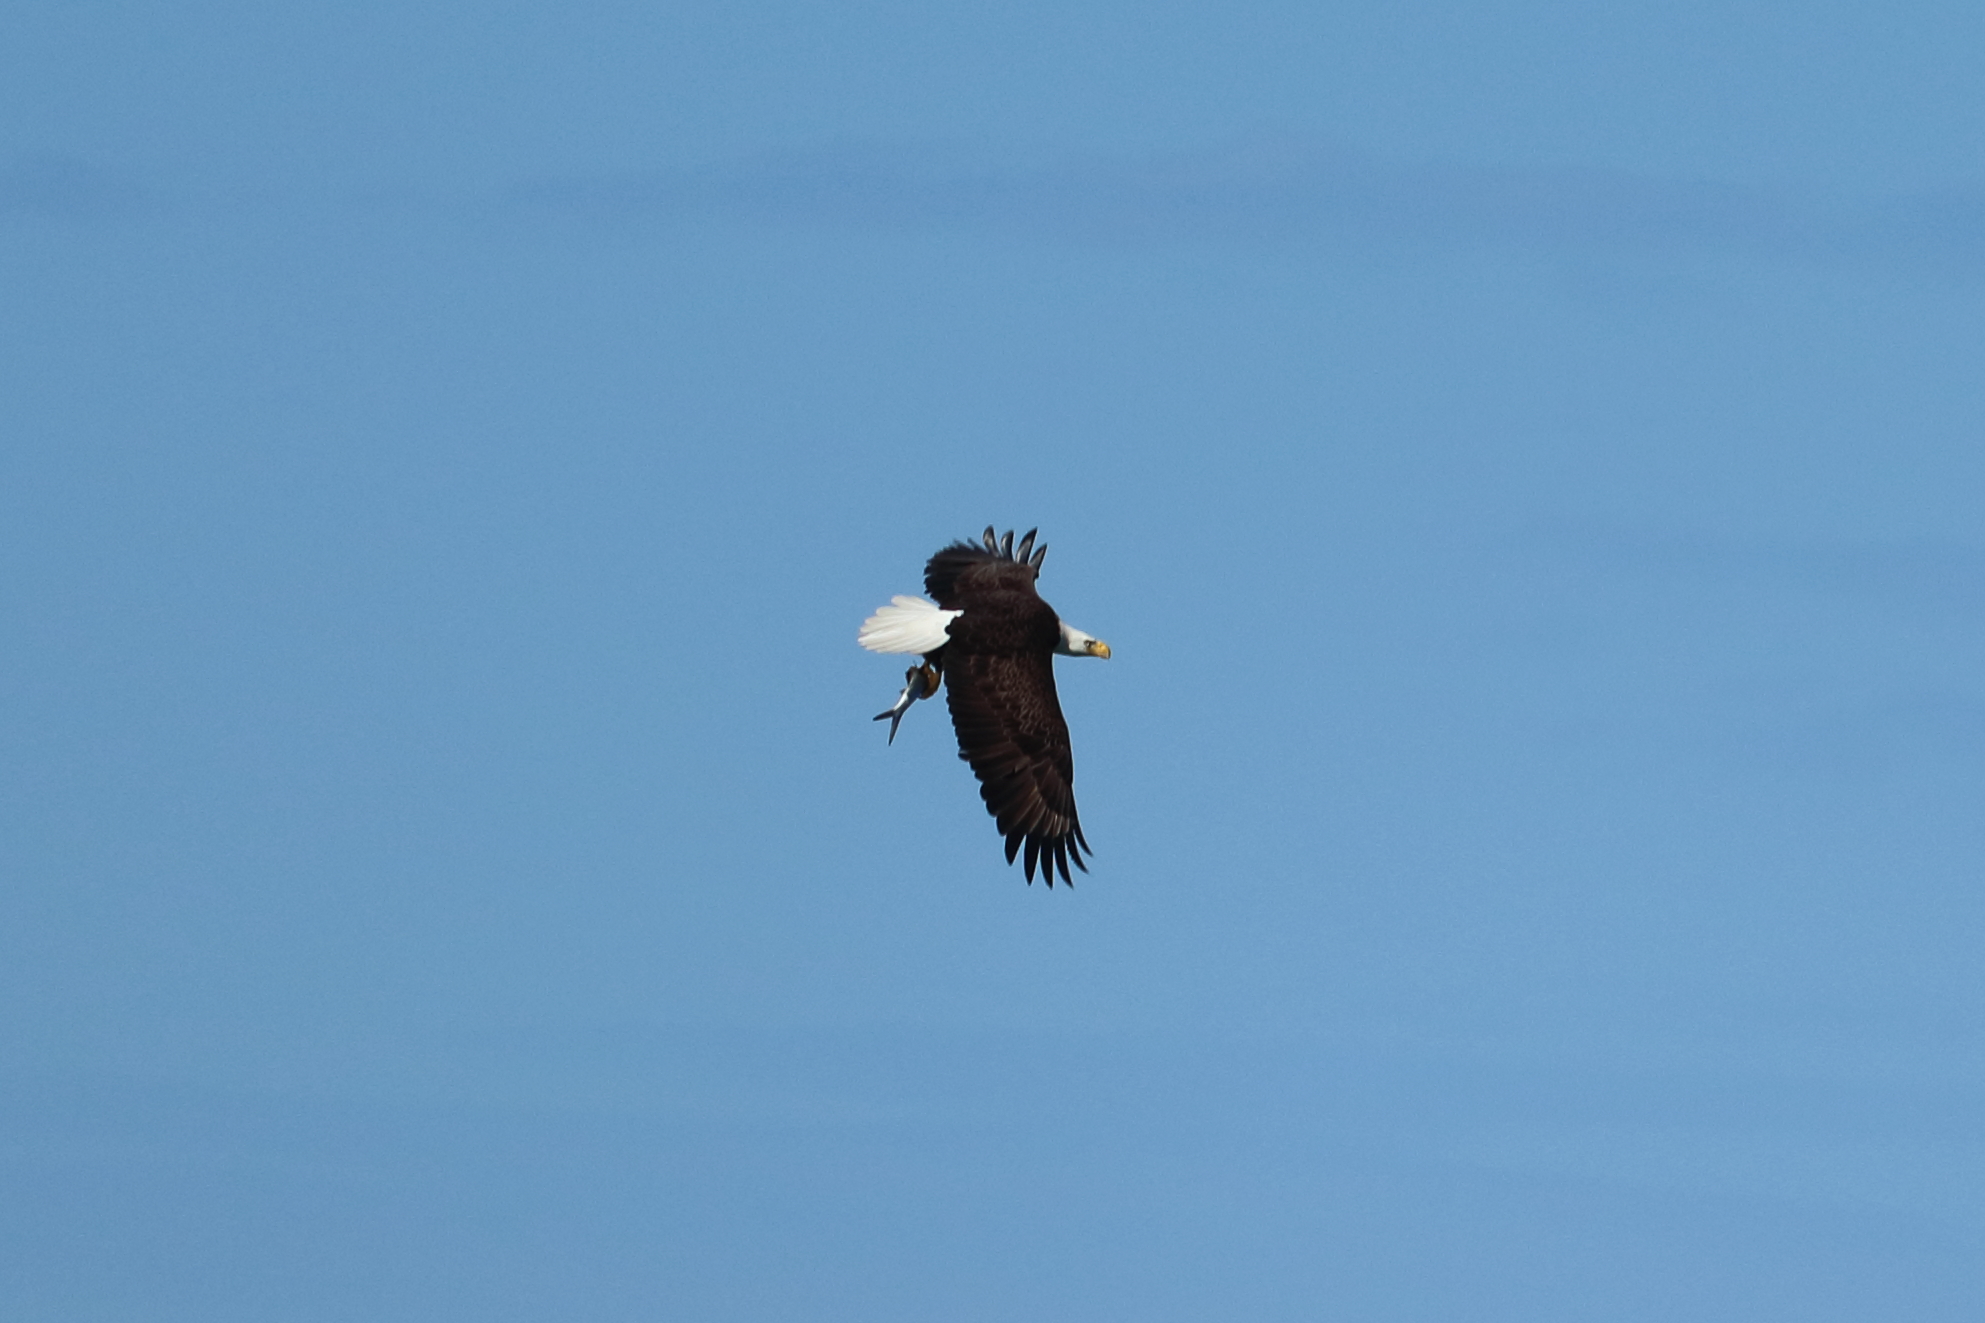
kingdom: Animalia
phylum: Chordata
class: Aves
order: Accipitriformes
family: Accipitridae
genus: Haliaeetus
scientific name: Haliaeetus leucocephalus
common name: Bald eagle
